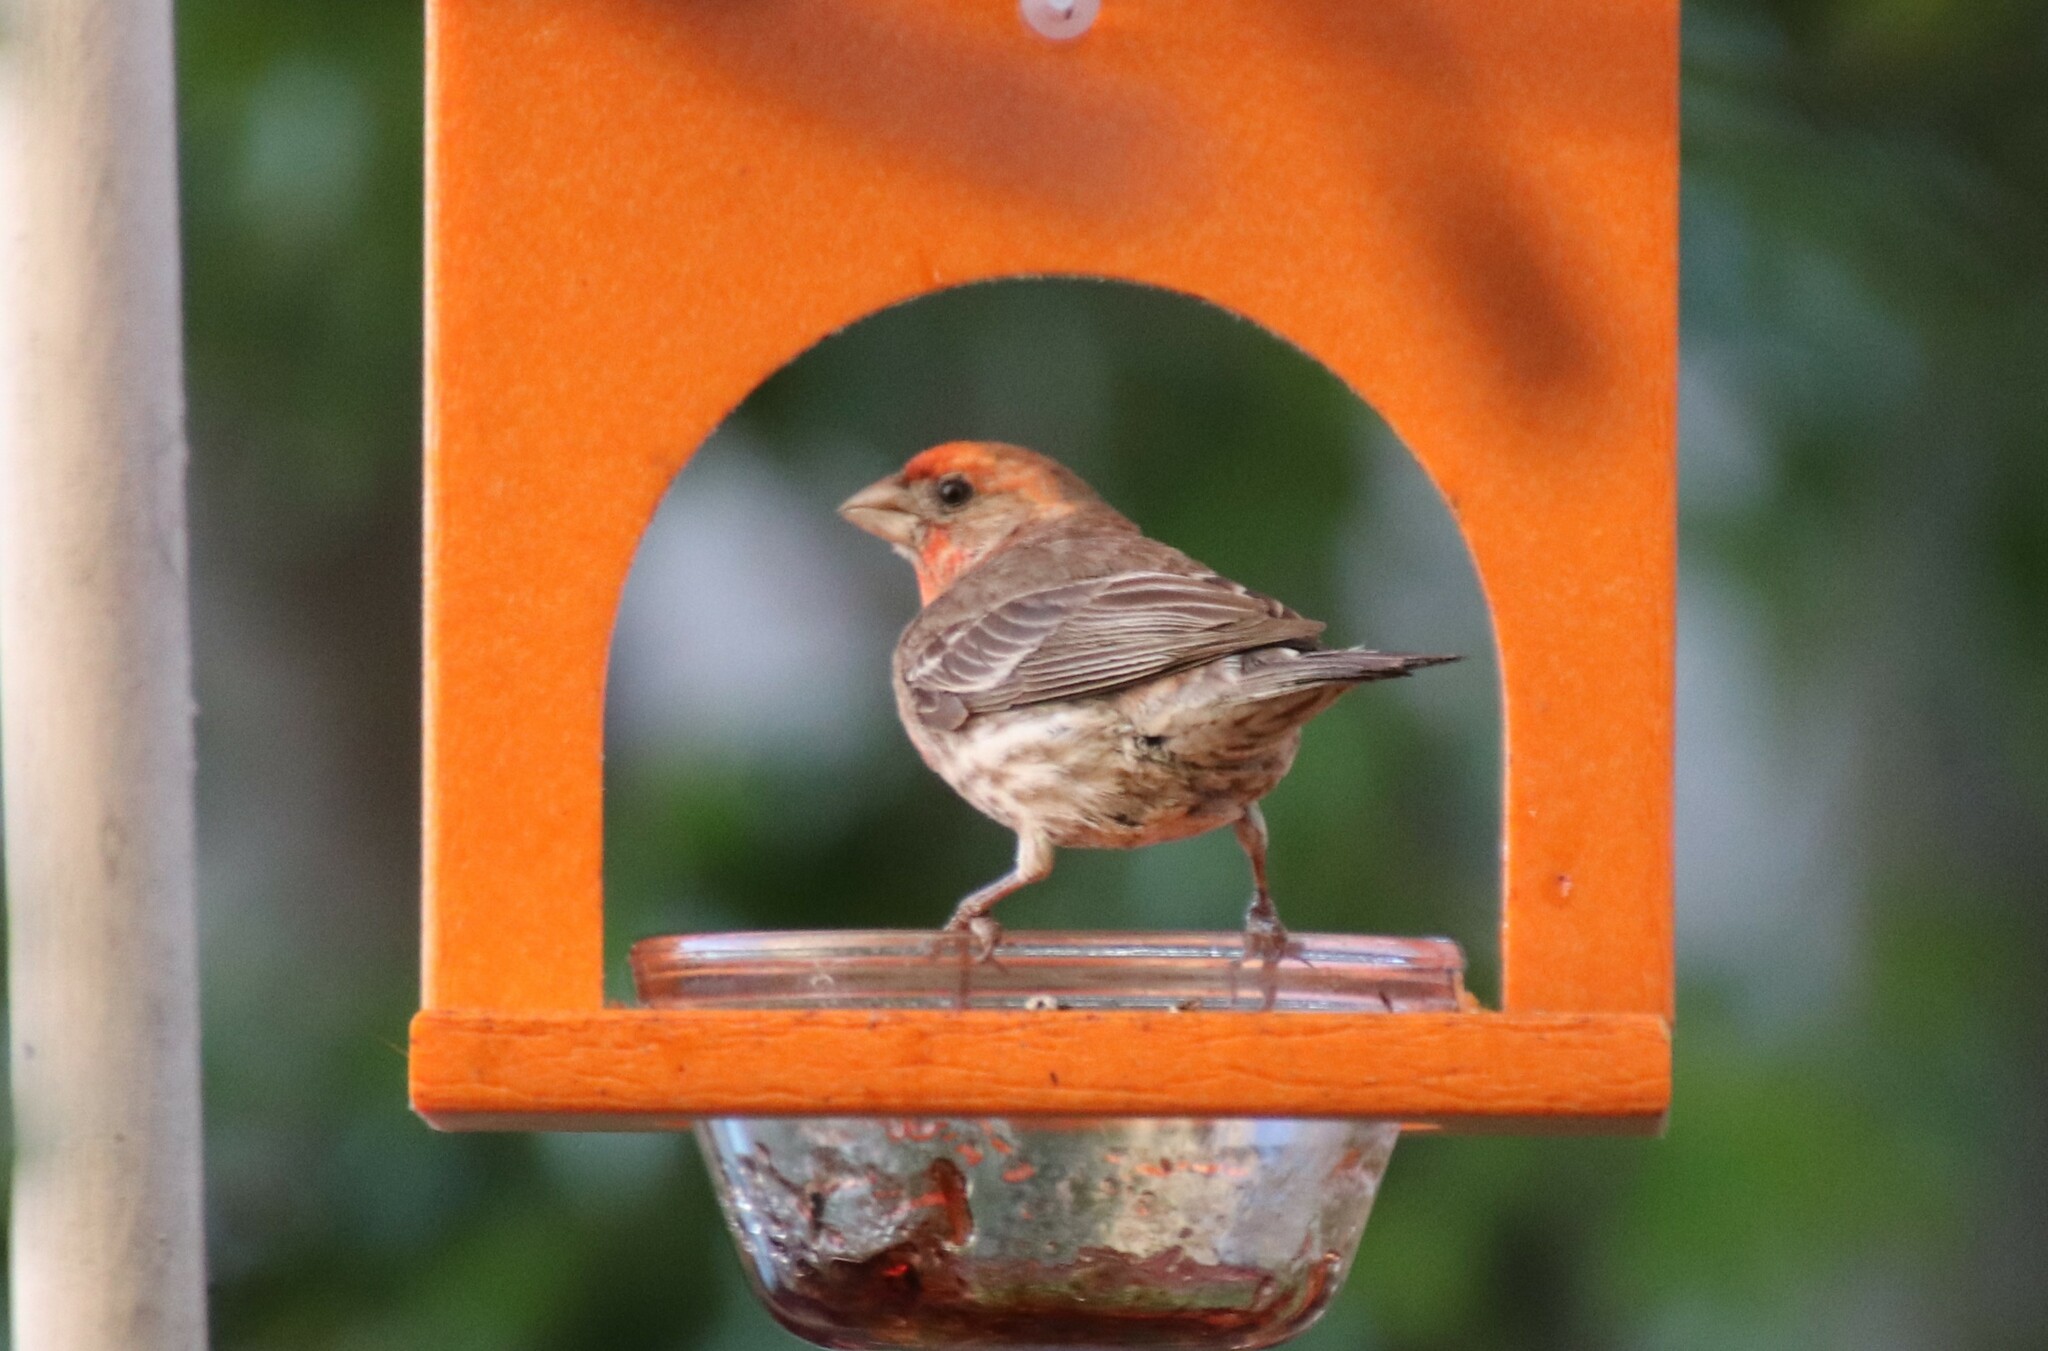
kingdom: Animalia
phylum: Chordata
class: Aves
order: Passeriformes
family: Fringillidae
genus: Haemorhous
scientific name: Haemorhous mexicanus
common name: House finch
